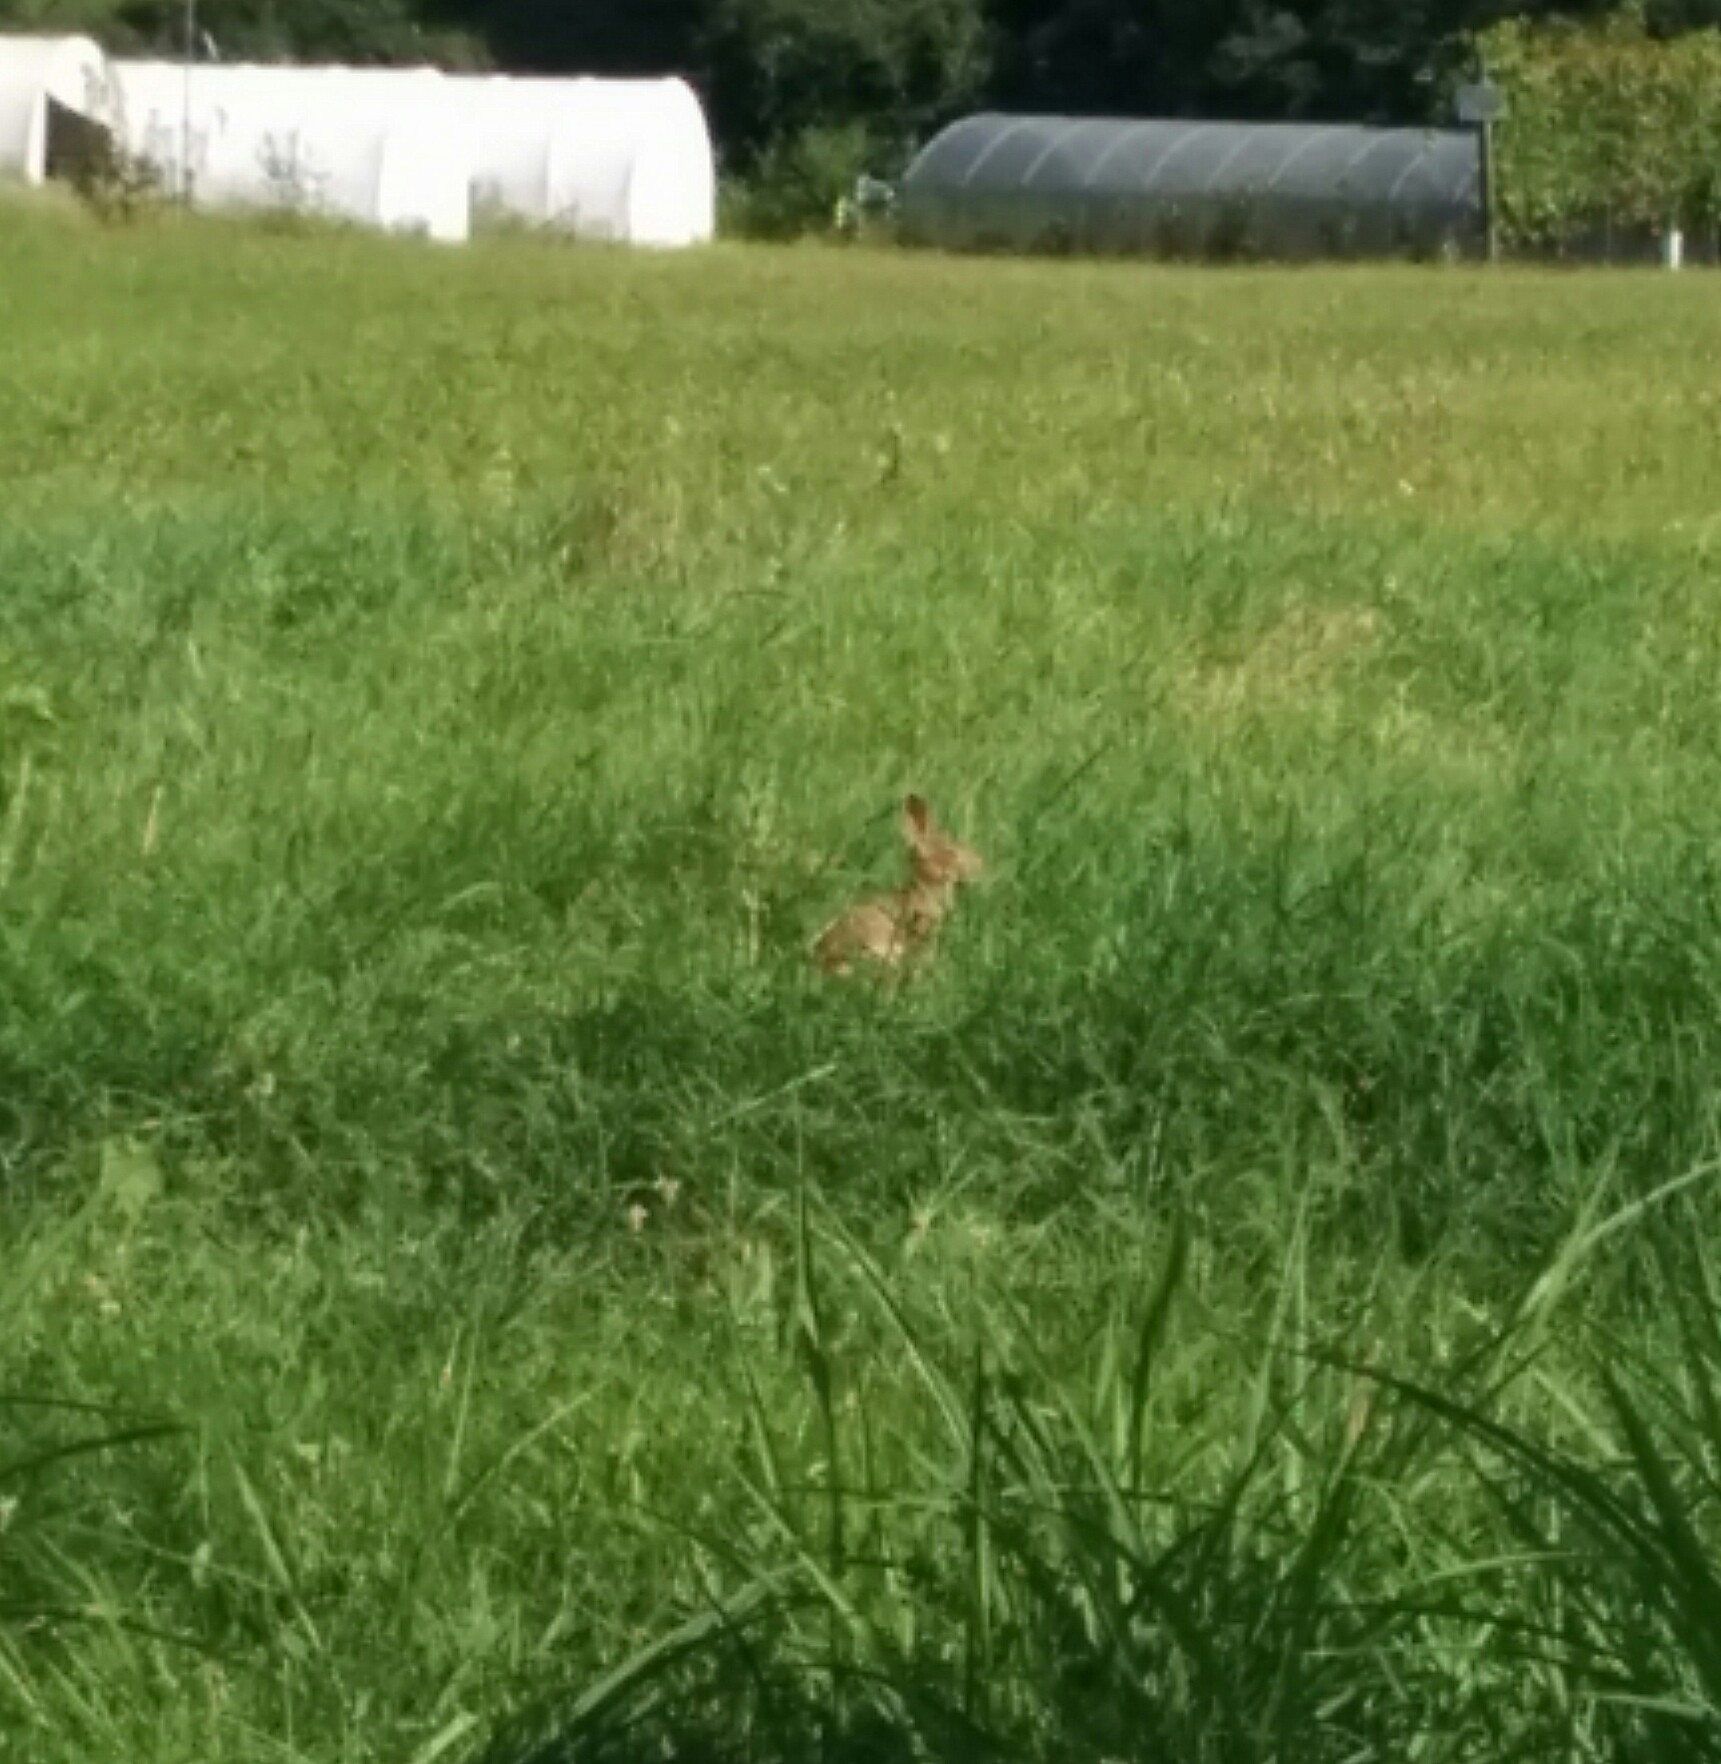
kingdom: Animalia
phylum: Chordata
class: Mammalia
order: Lagomorpha
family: Leporidae
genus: Sylvilagus
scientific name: Sylvilagus floridanus
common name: Eastern cottontail
